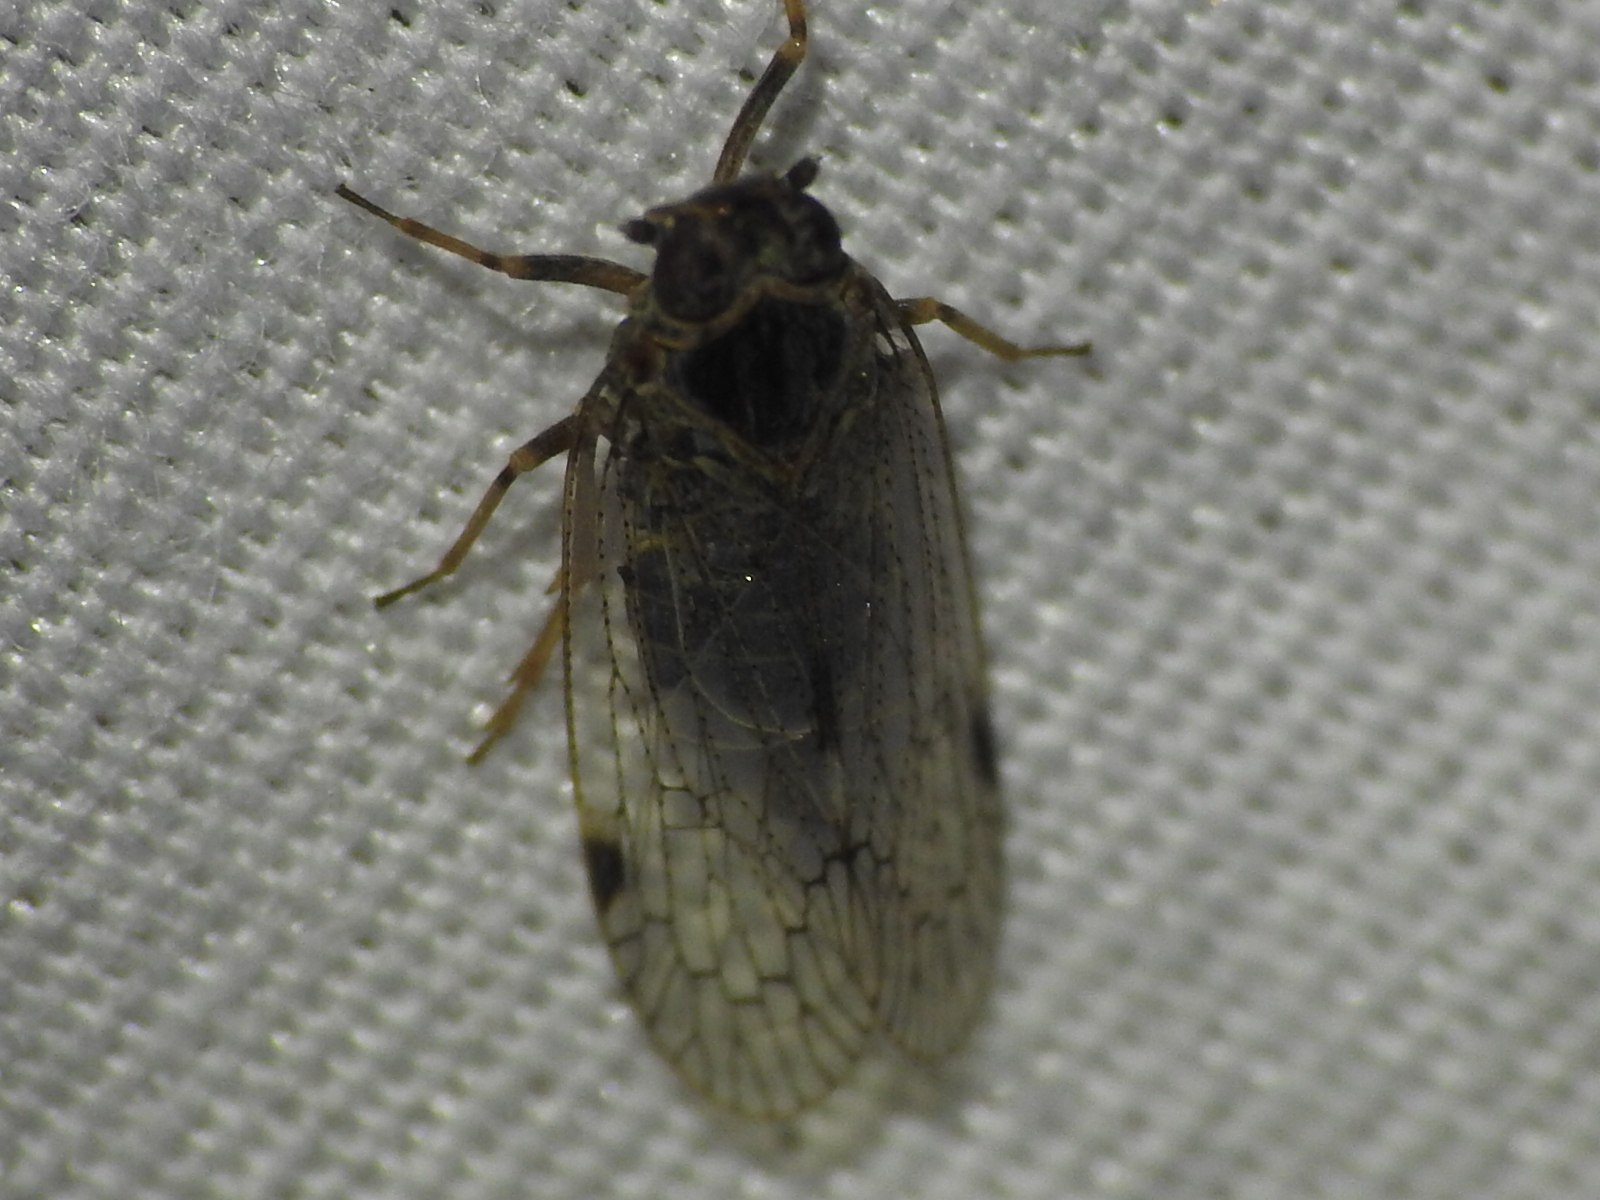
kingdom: Animalia
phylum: Arthropoda
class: Insecta
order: Hemiptera
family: Cixiidae
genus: Melanoliarus
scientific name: Melanoliarus aridus
